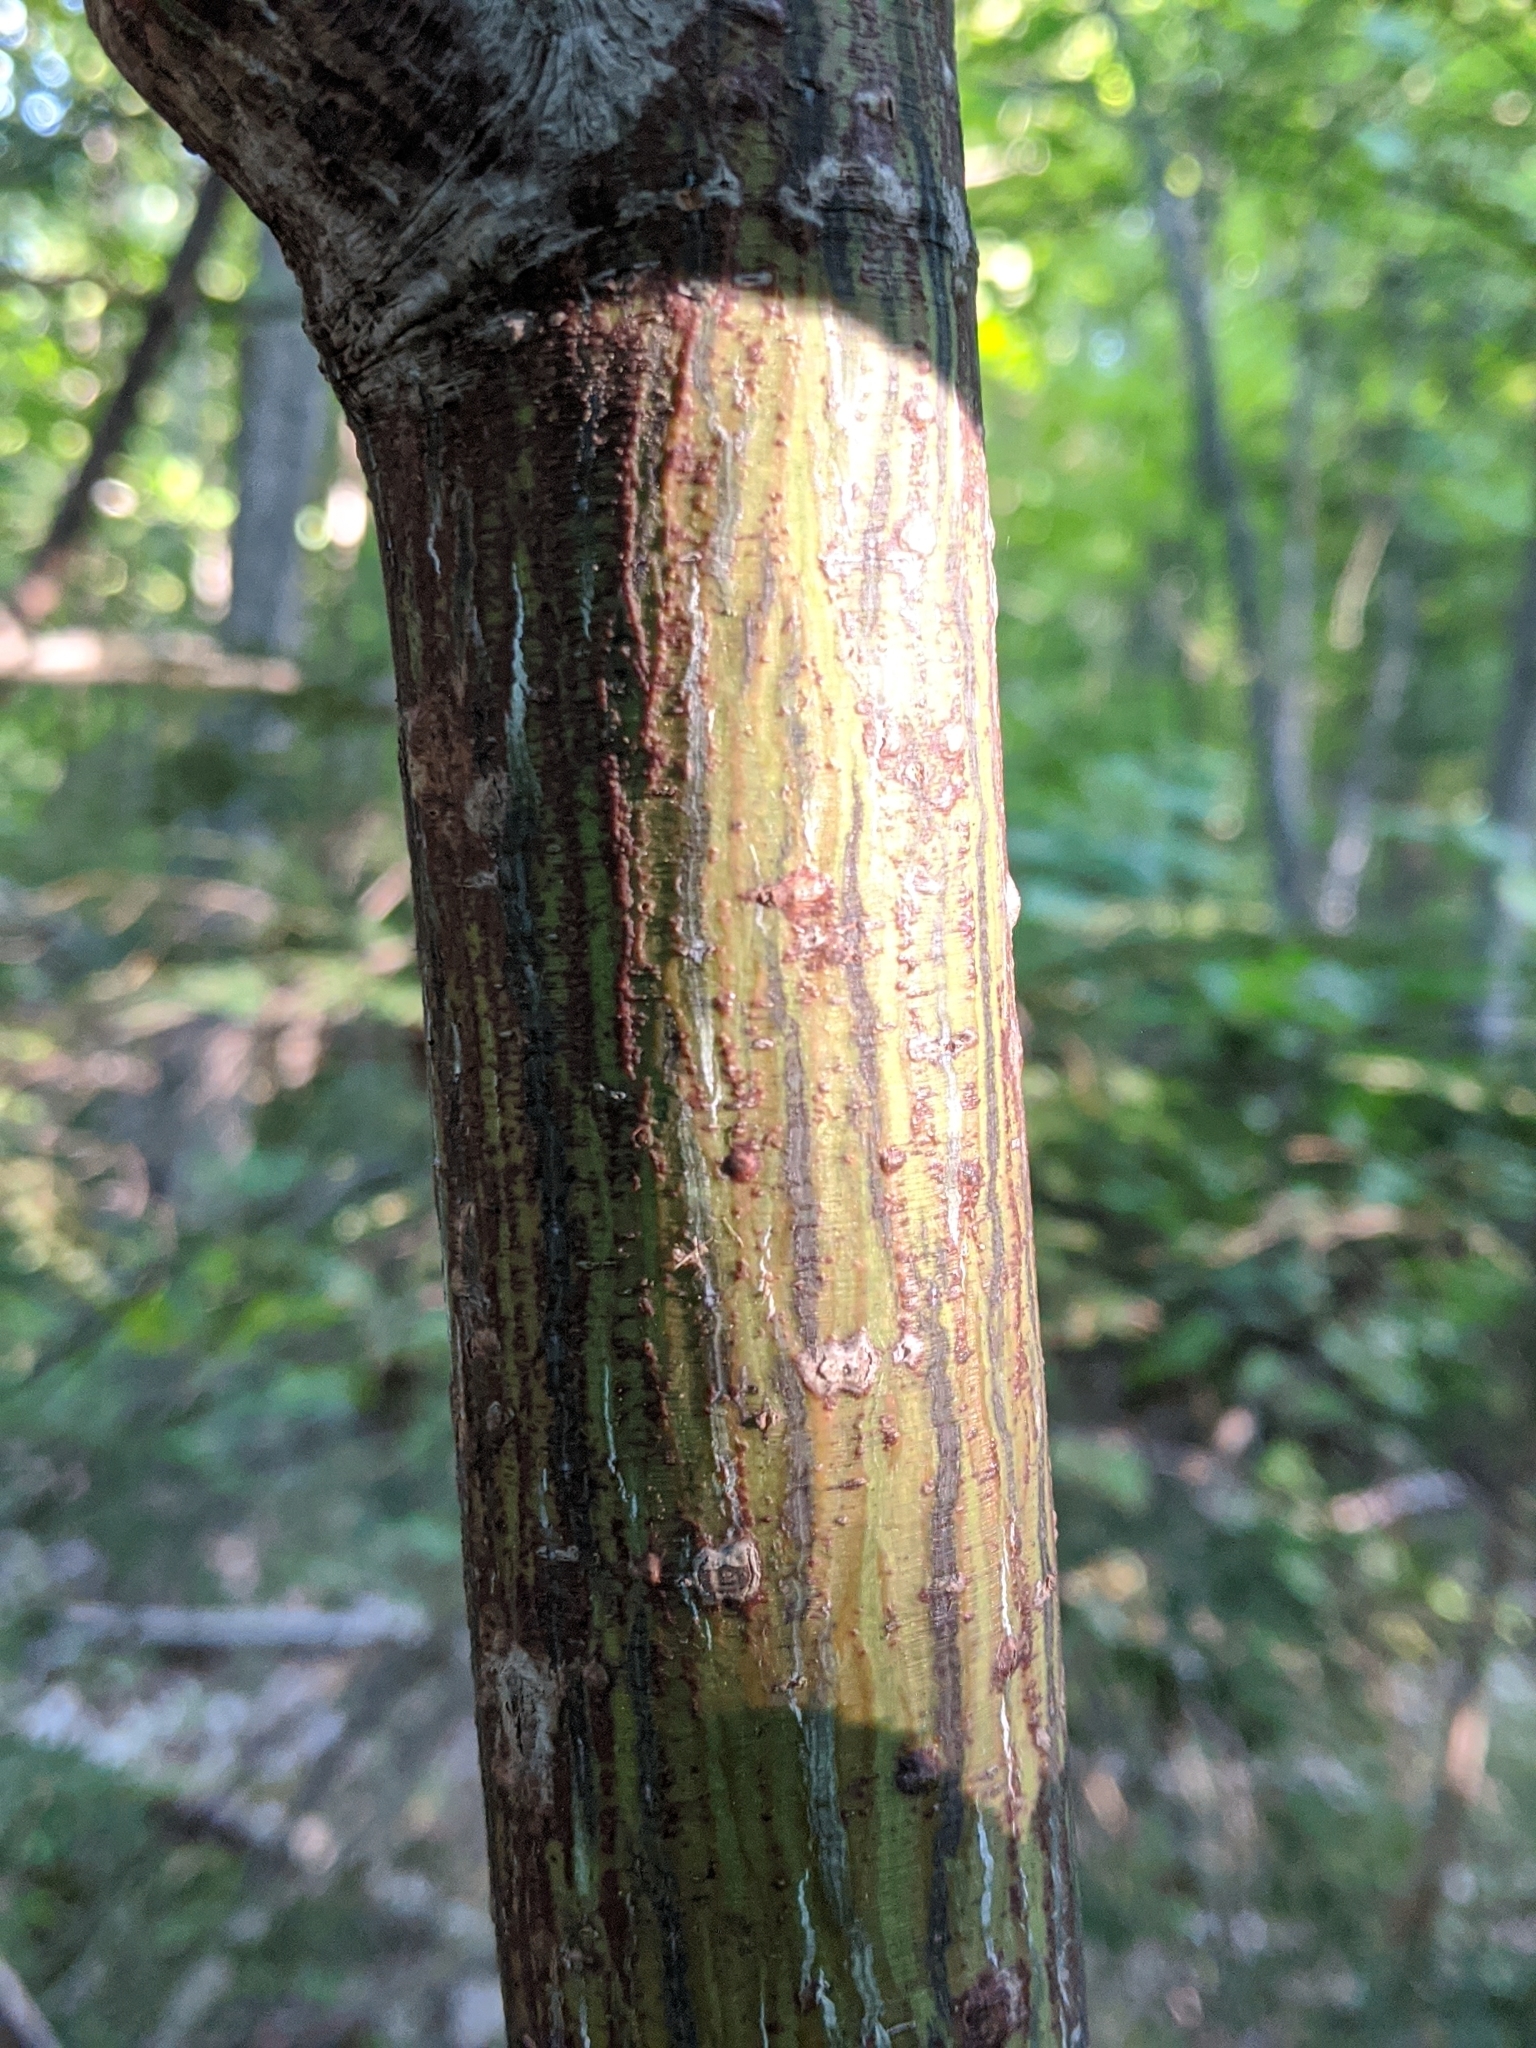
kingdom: Plantae
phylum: Tracheophyta
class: Magnoliopsida
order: Sapindales
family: Sapindaceae
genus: Acer
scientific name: Acer pensylvanicum
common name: Moosewood
